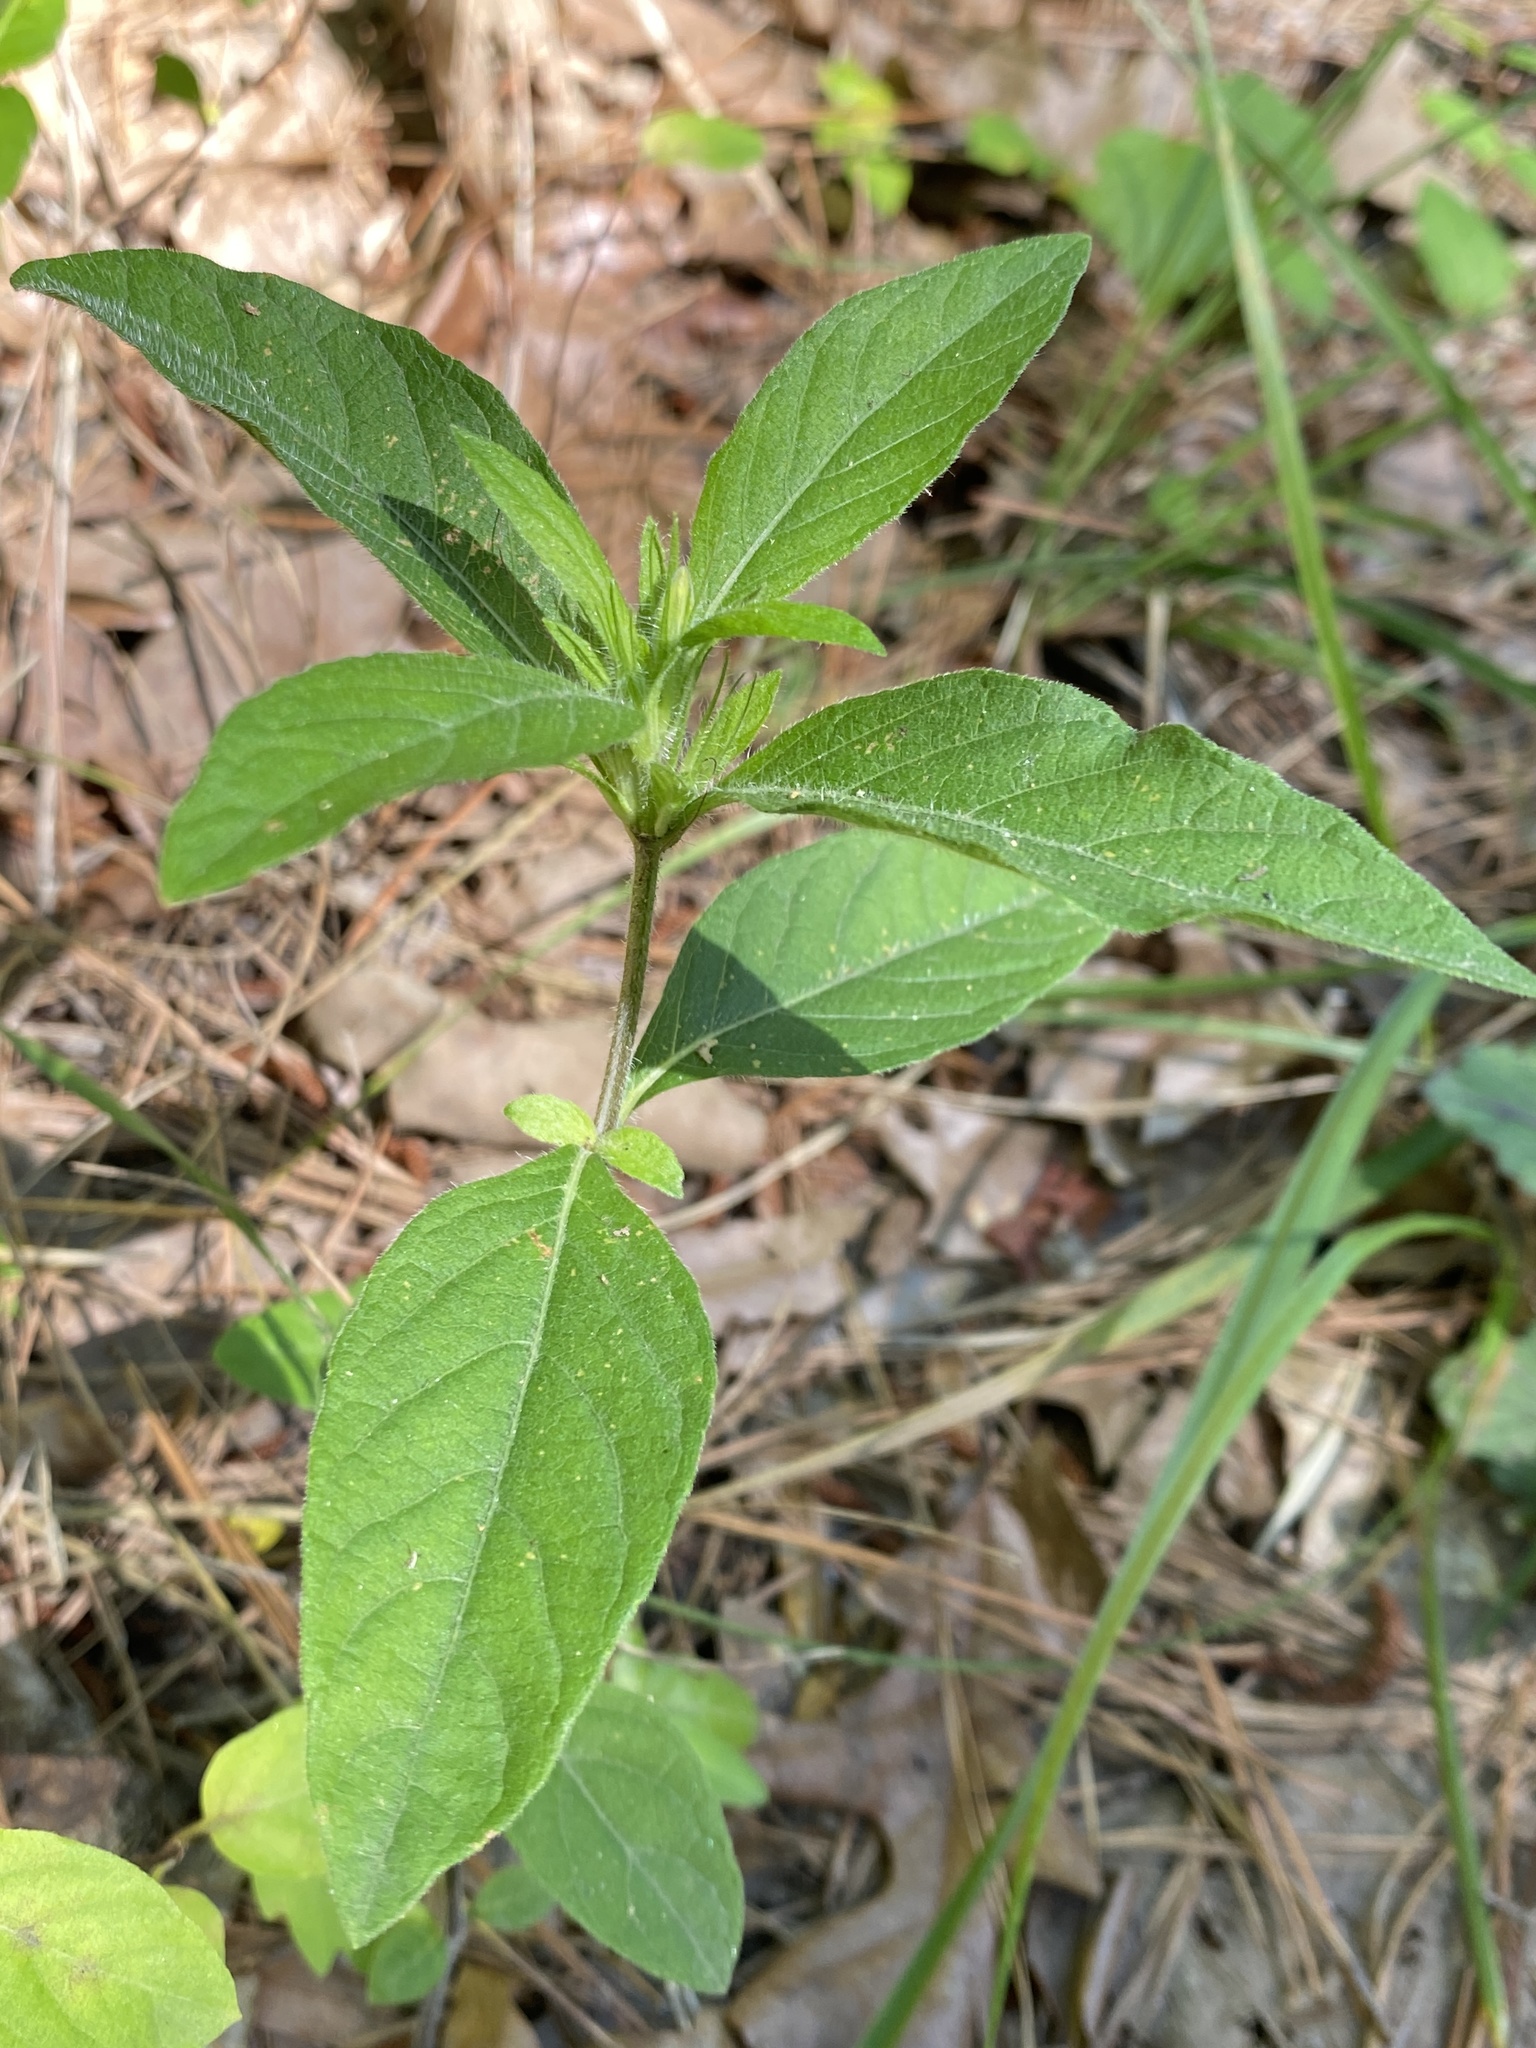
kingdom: Plantae
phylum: Tracheophyta
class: Magnoliopsida
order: Lamiales
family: Acanthaceae
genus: Ruellia
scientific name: Ruellia caroliniensis
